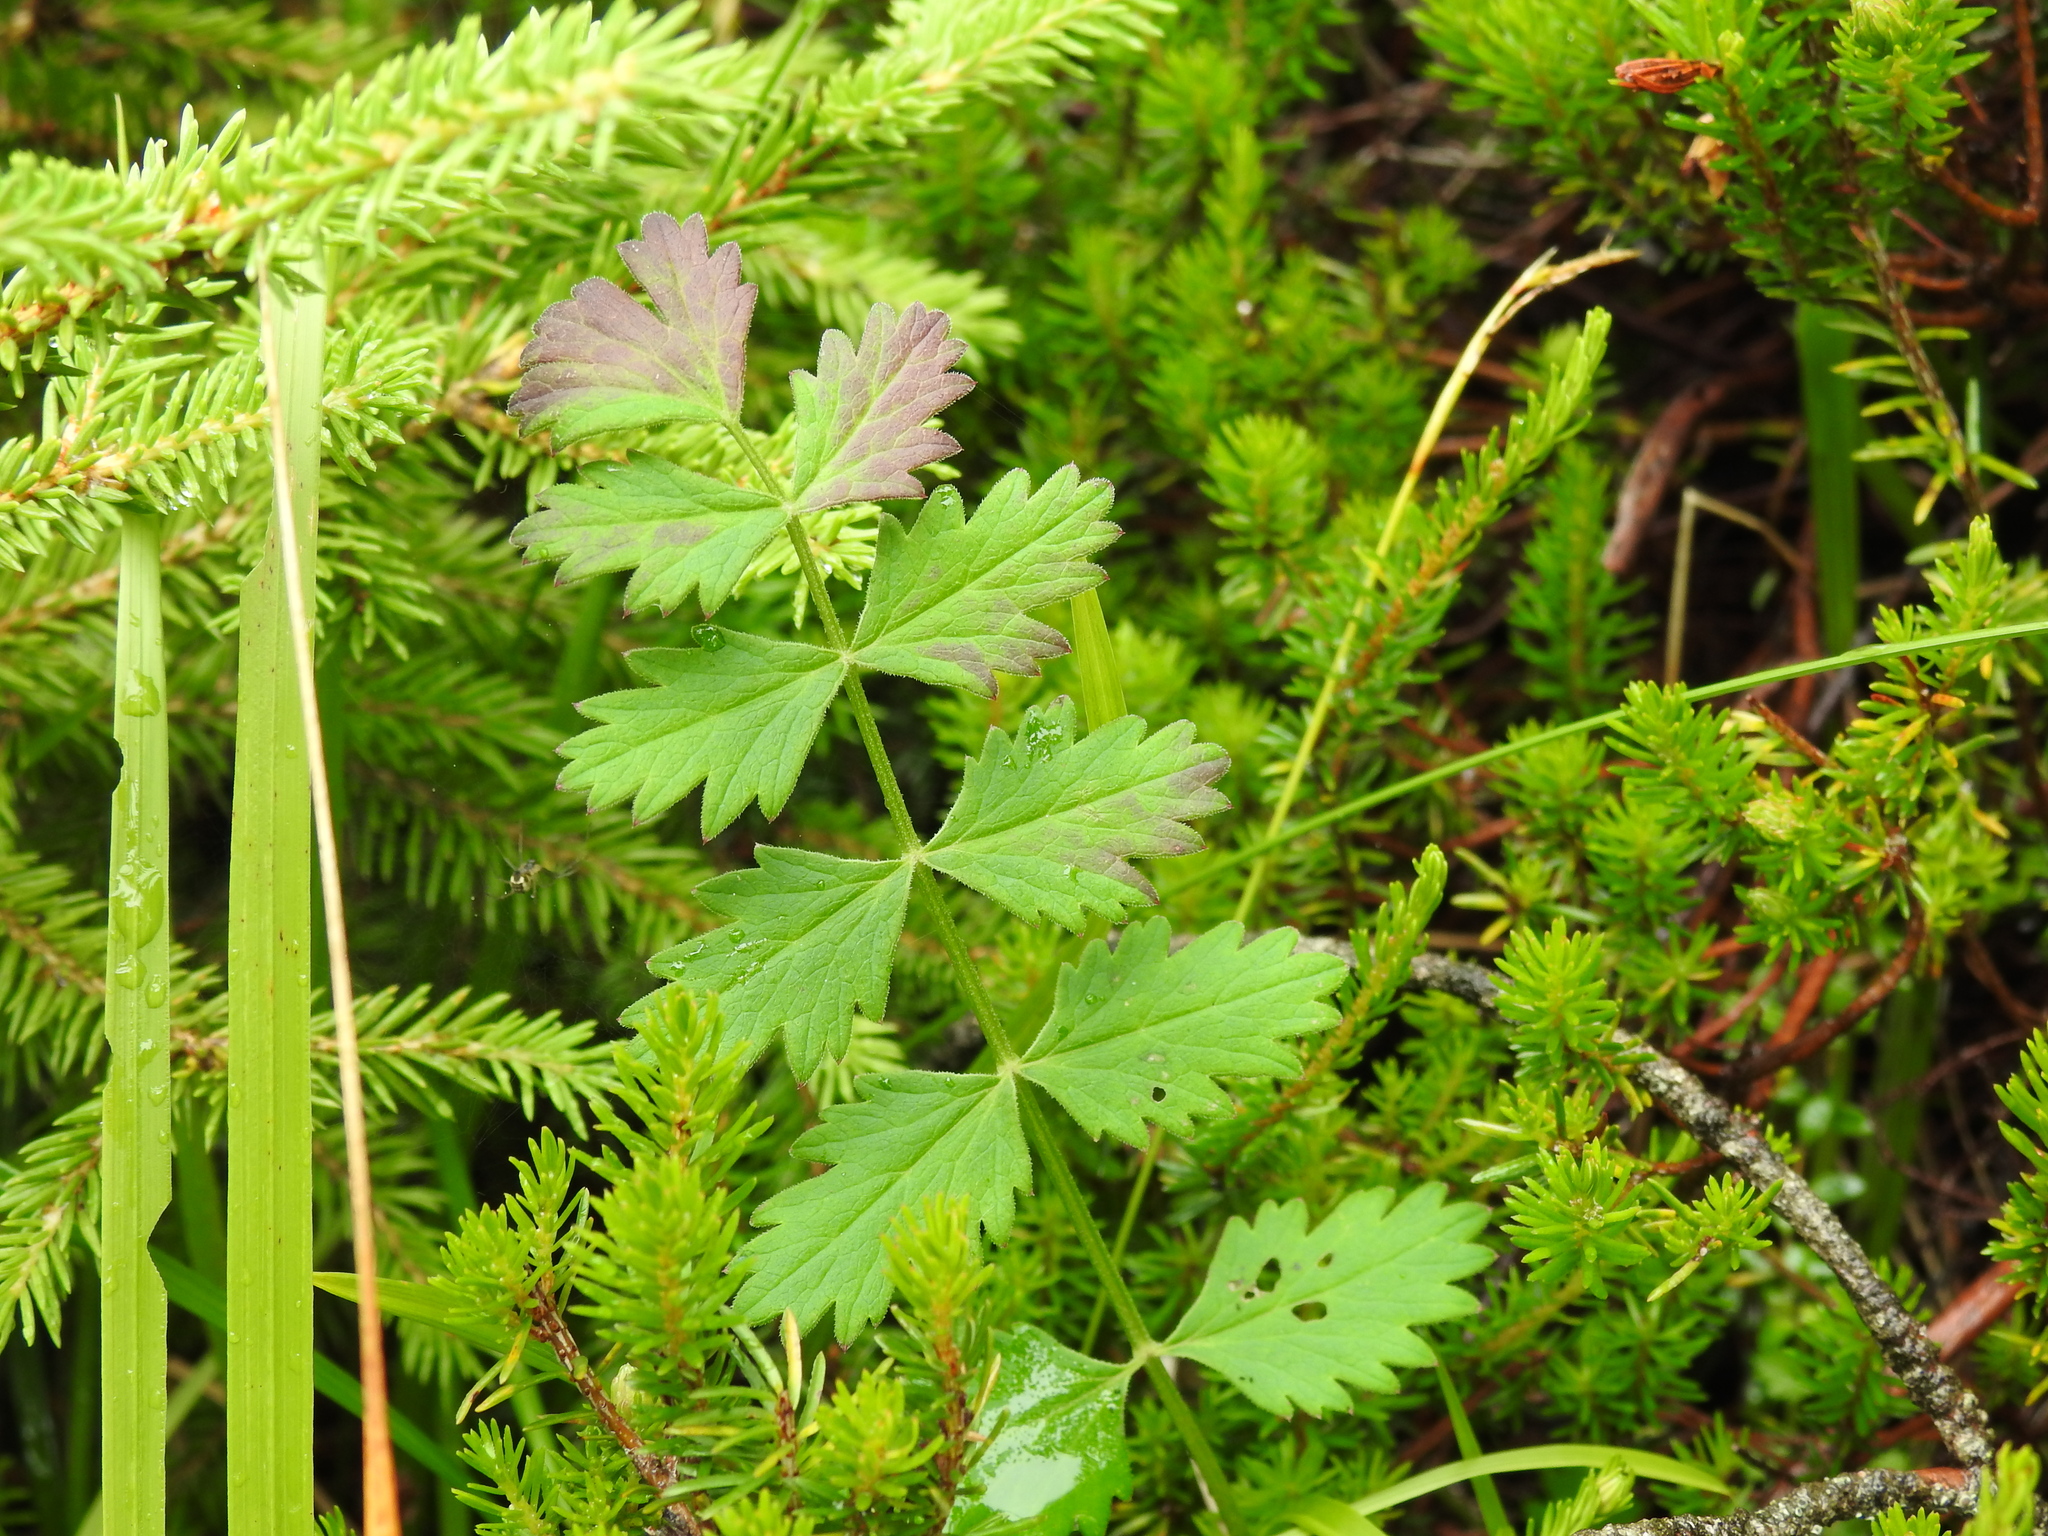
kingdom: Plantae
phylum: Tracheophyta
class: Magnoliopsida
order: Apiales
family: Apiaceae
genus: Pimpinella
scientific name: Pimpinella saxifraga
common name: Burnet-saxifrage
